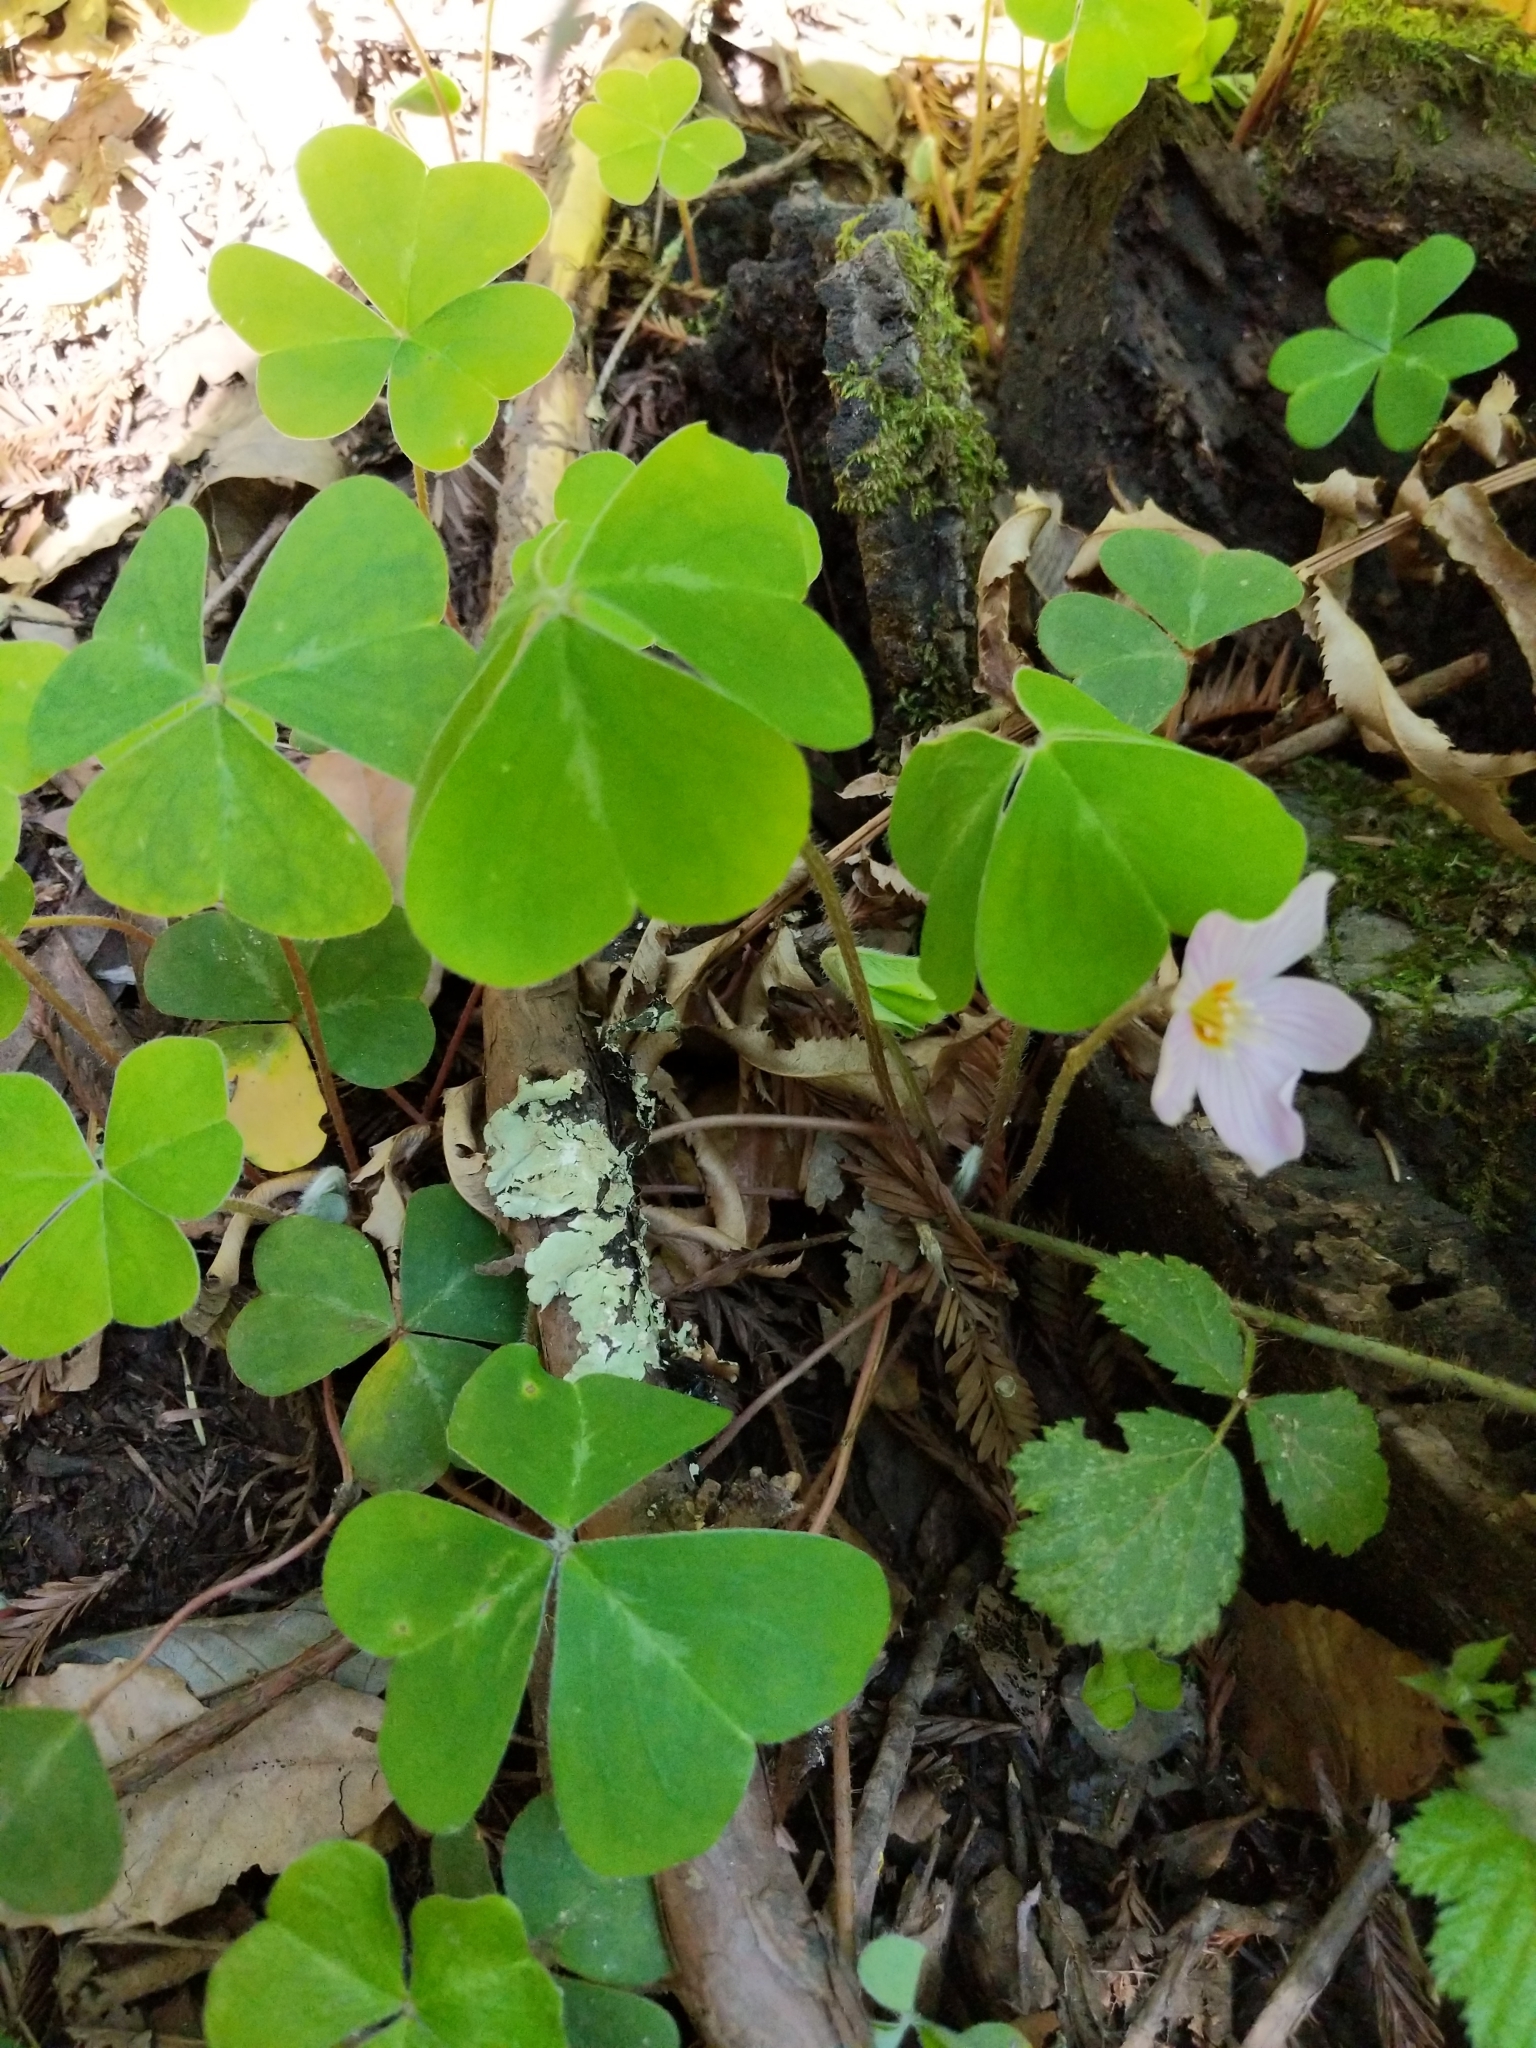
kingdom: Plantae
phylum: Tracheophyta
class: Magnoliopsida
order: Oxalidales
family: Oxalidaceae
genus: Oxalis
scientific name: Oxalis oregana
